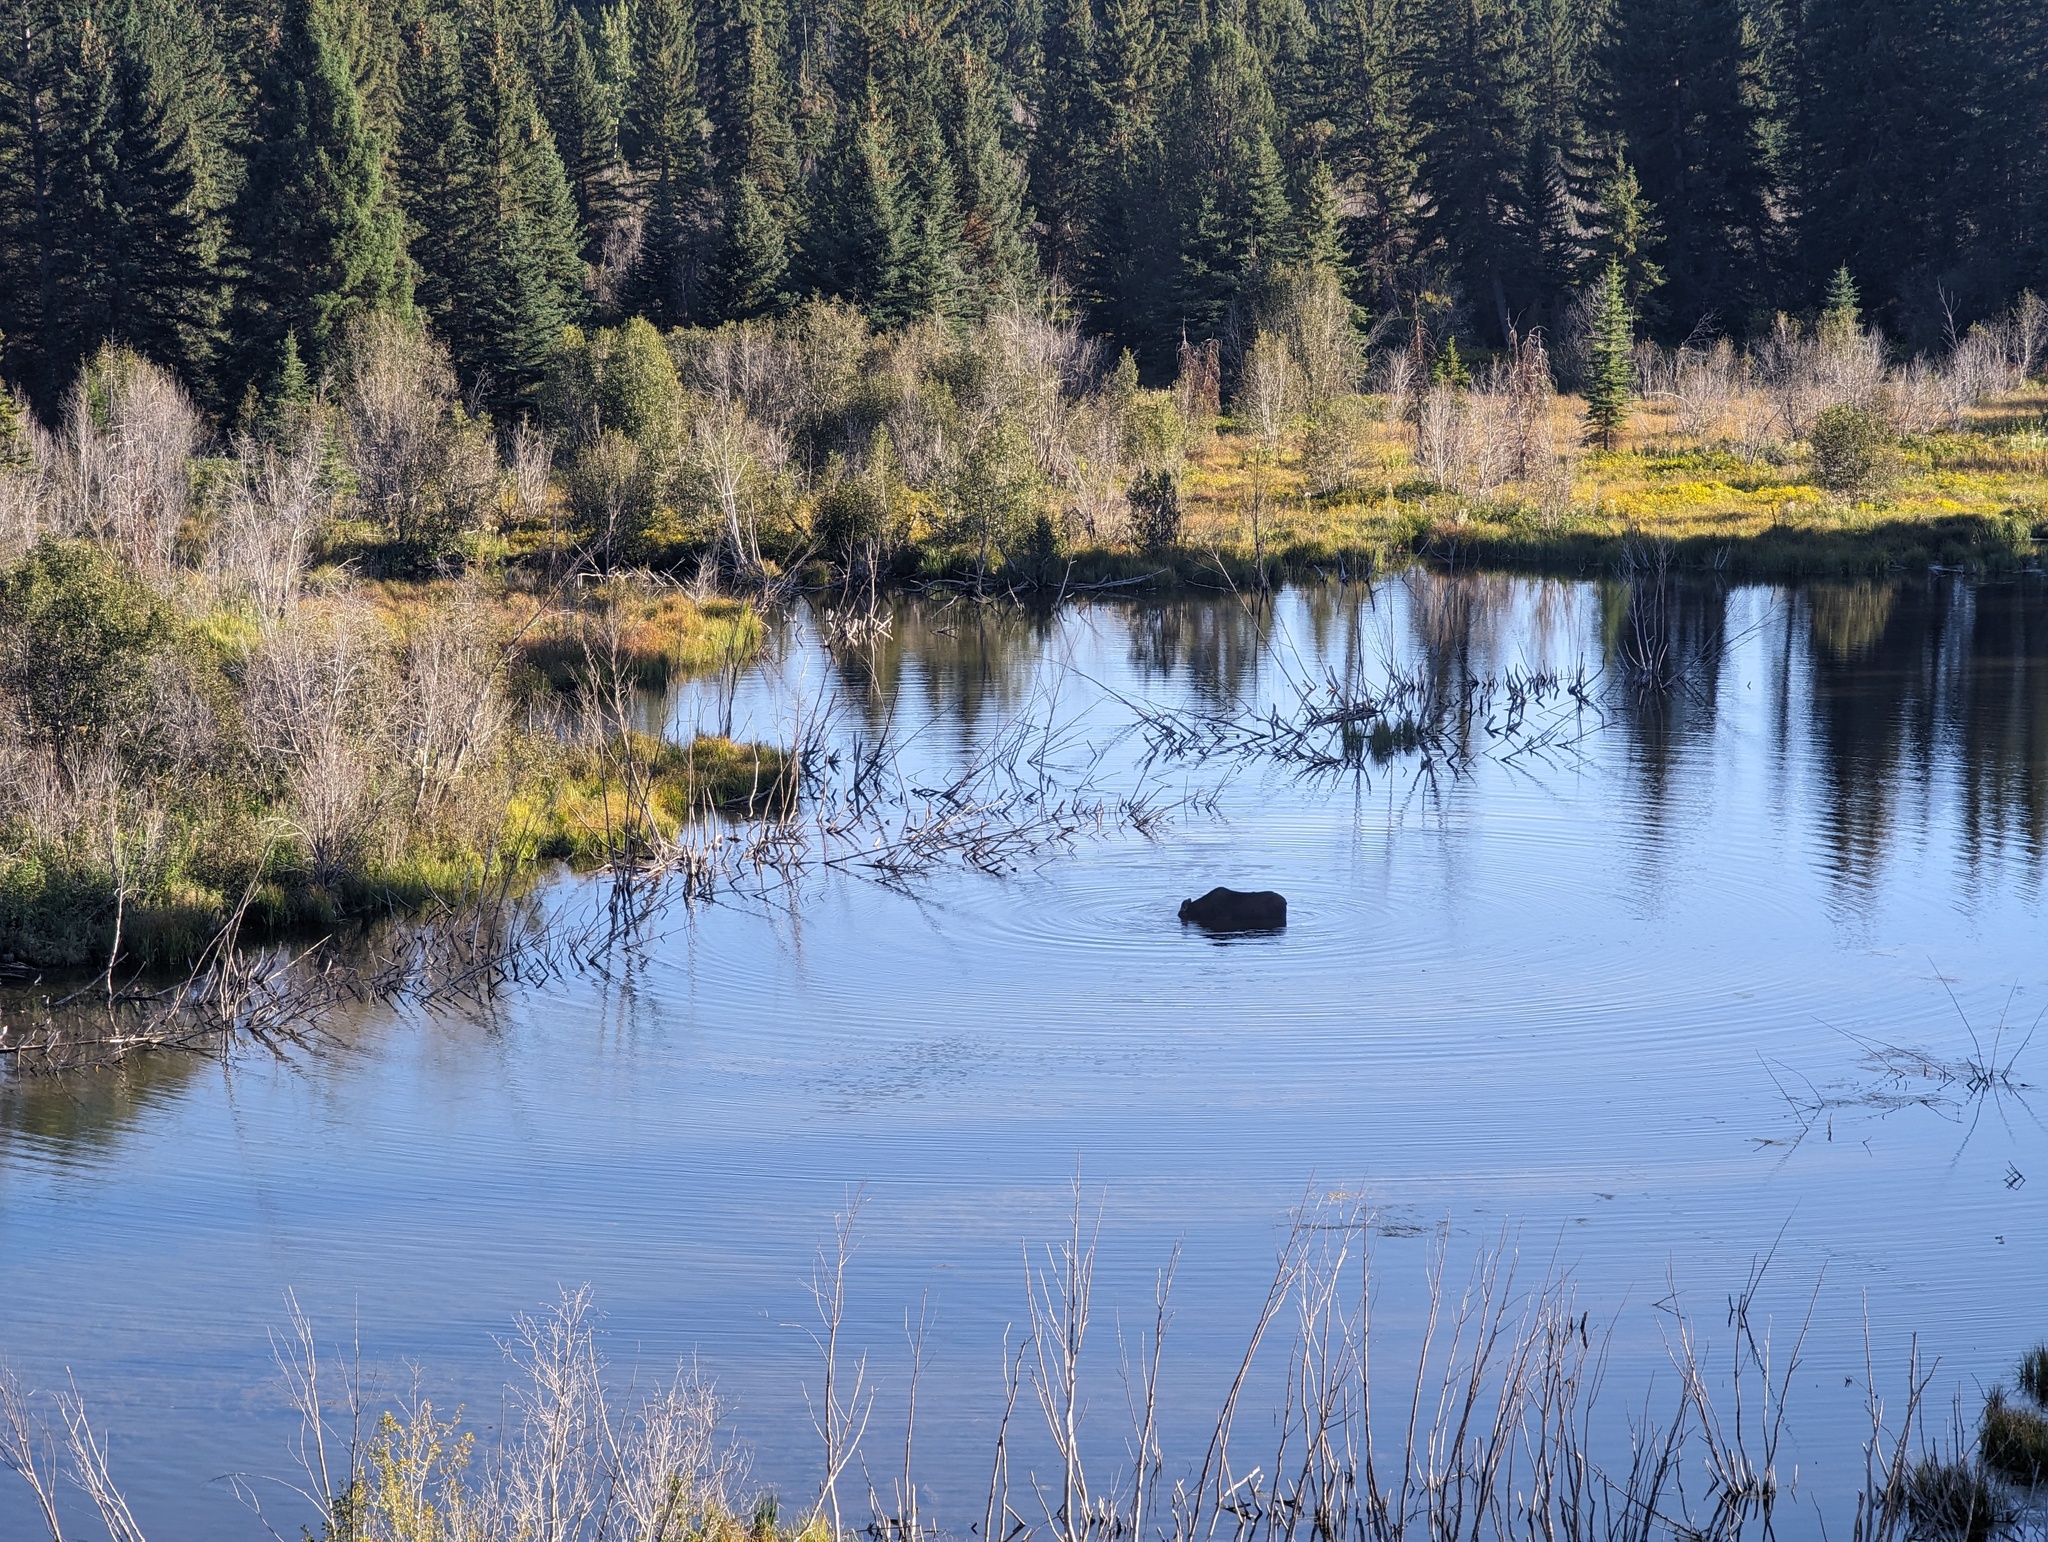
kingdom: Animalia
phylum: Chordata
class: Mammalia
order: Artiodactyla
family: Cervidae
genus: Alces
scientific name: Alces alces
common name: Moose
